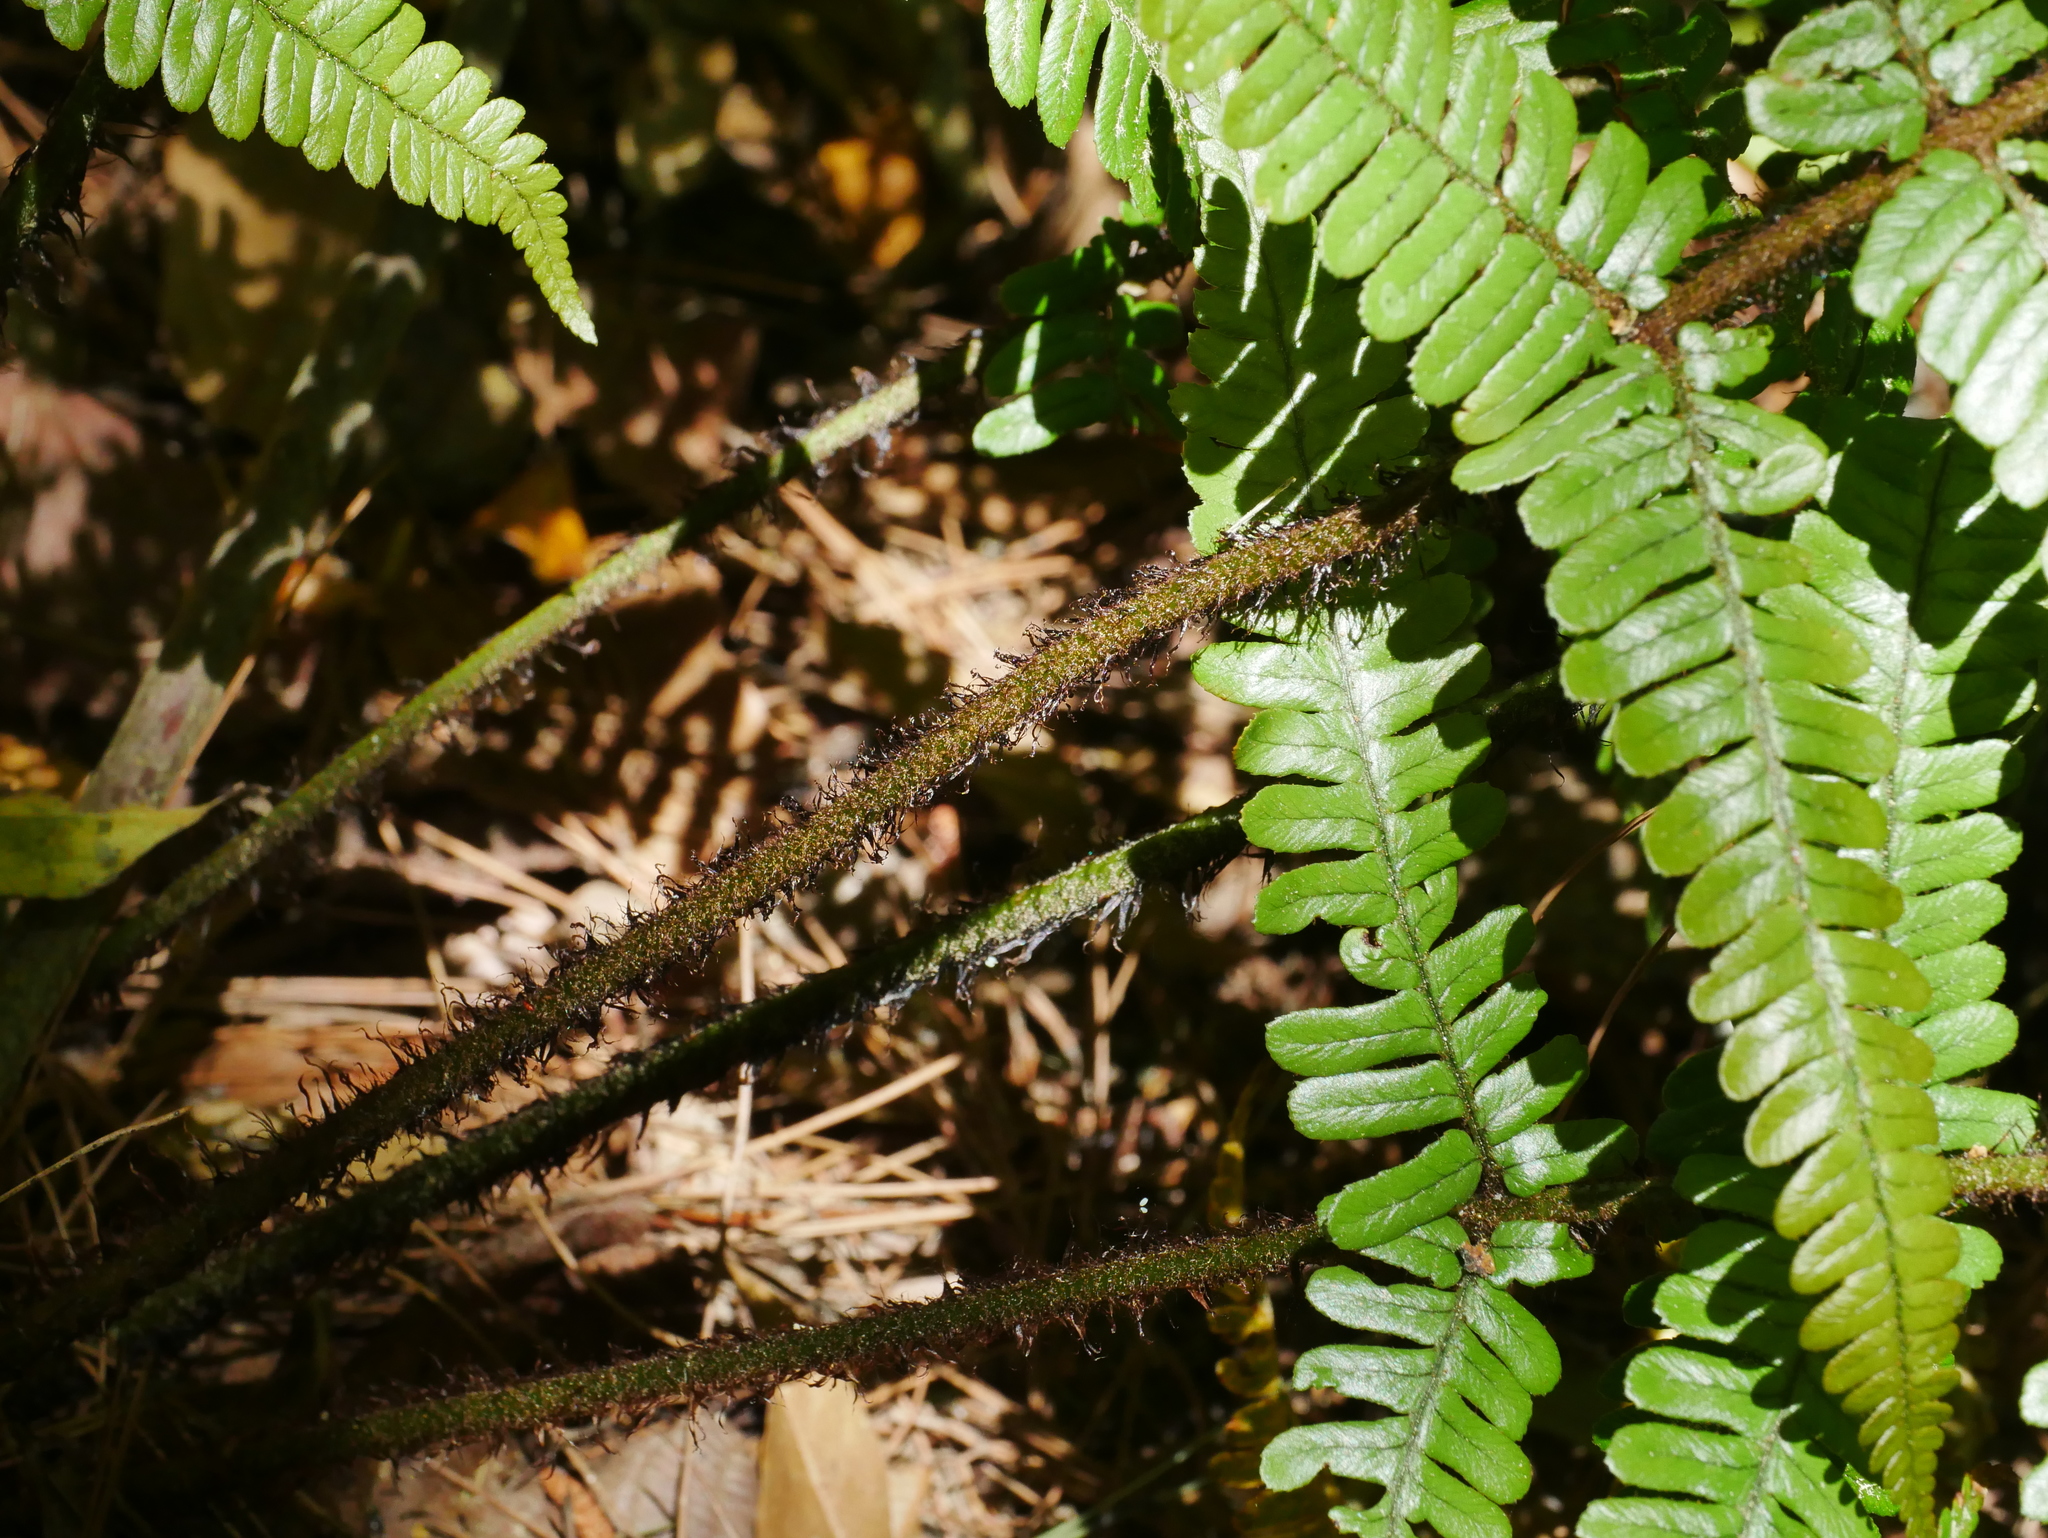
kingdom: Plantae
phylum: Tracheophyta
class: Polypodiopsida
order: Polypodiales
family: Dryopteridaceae
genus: Dryopteris
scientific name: Dryopteris lepidopoda
